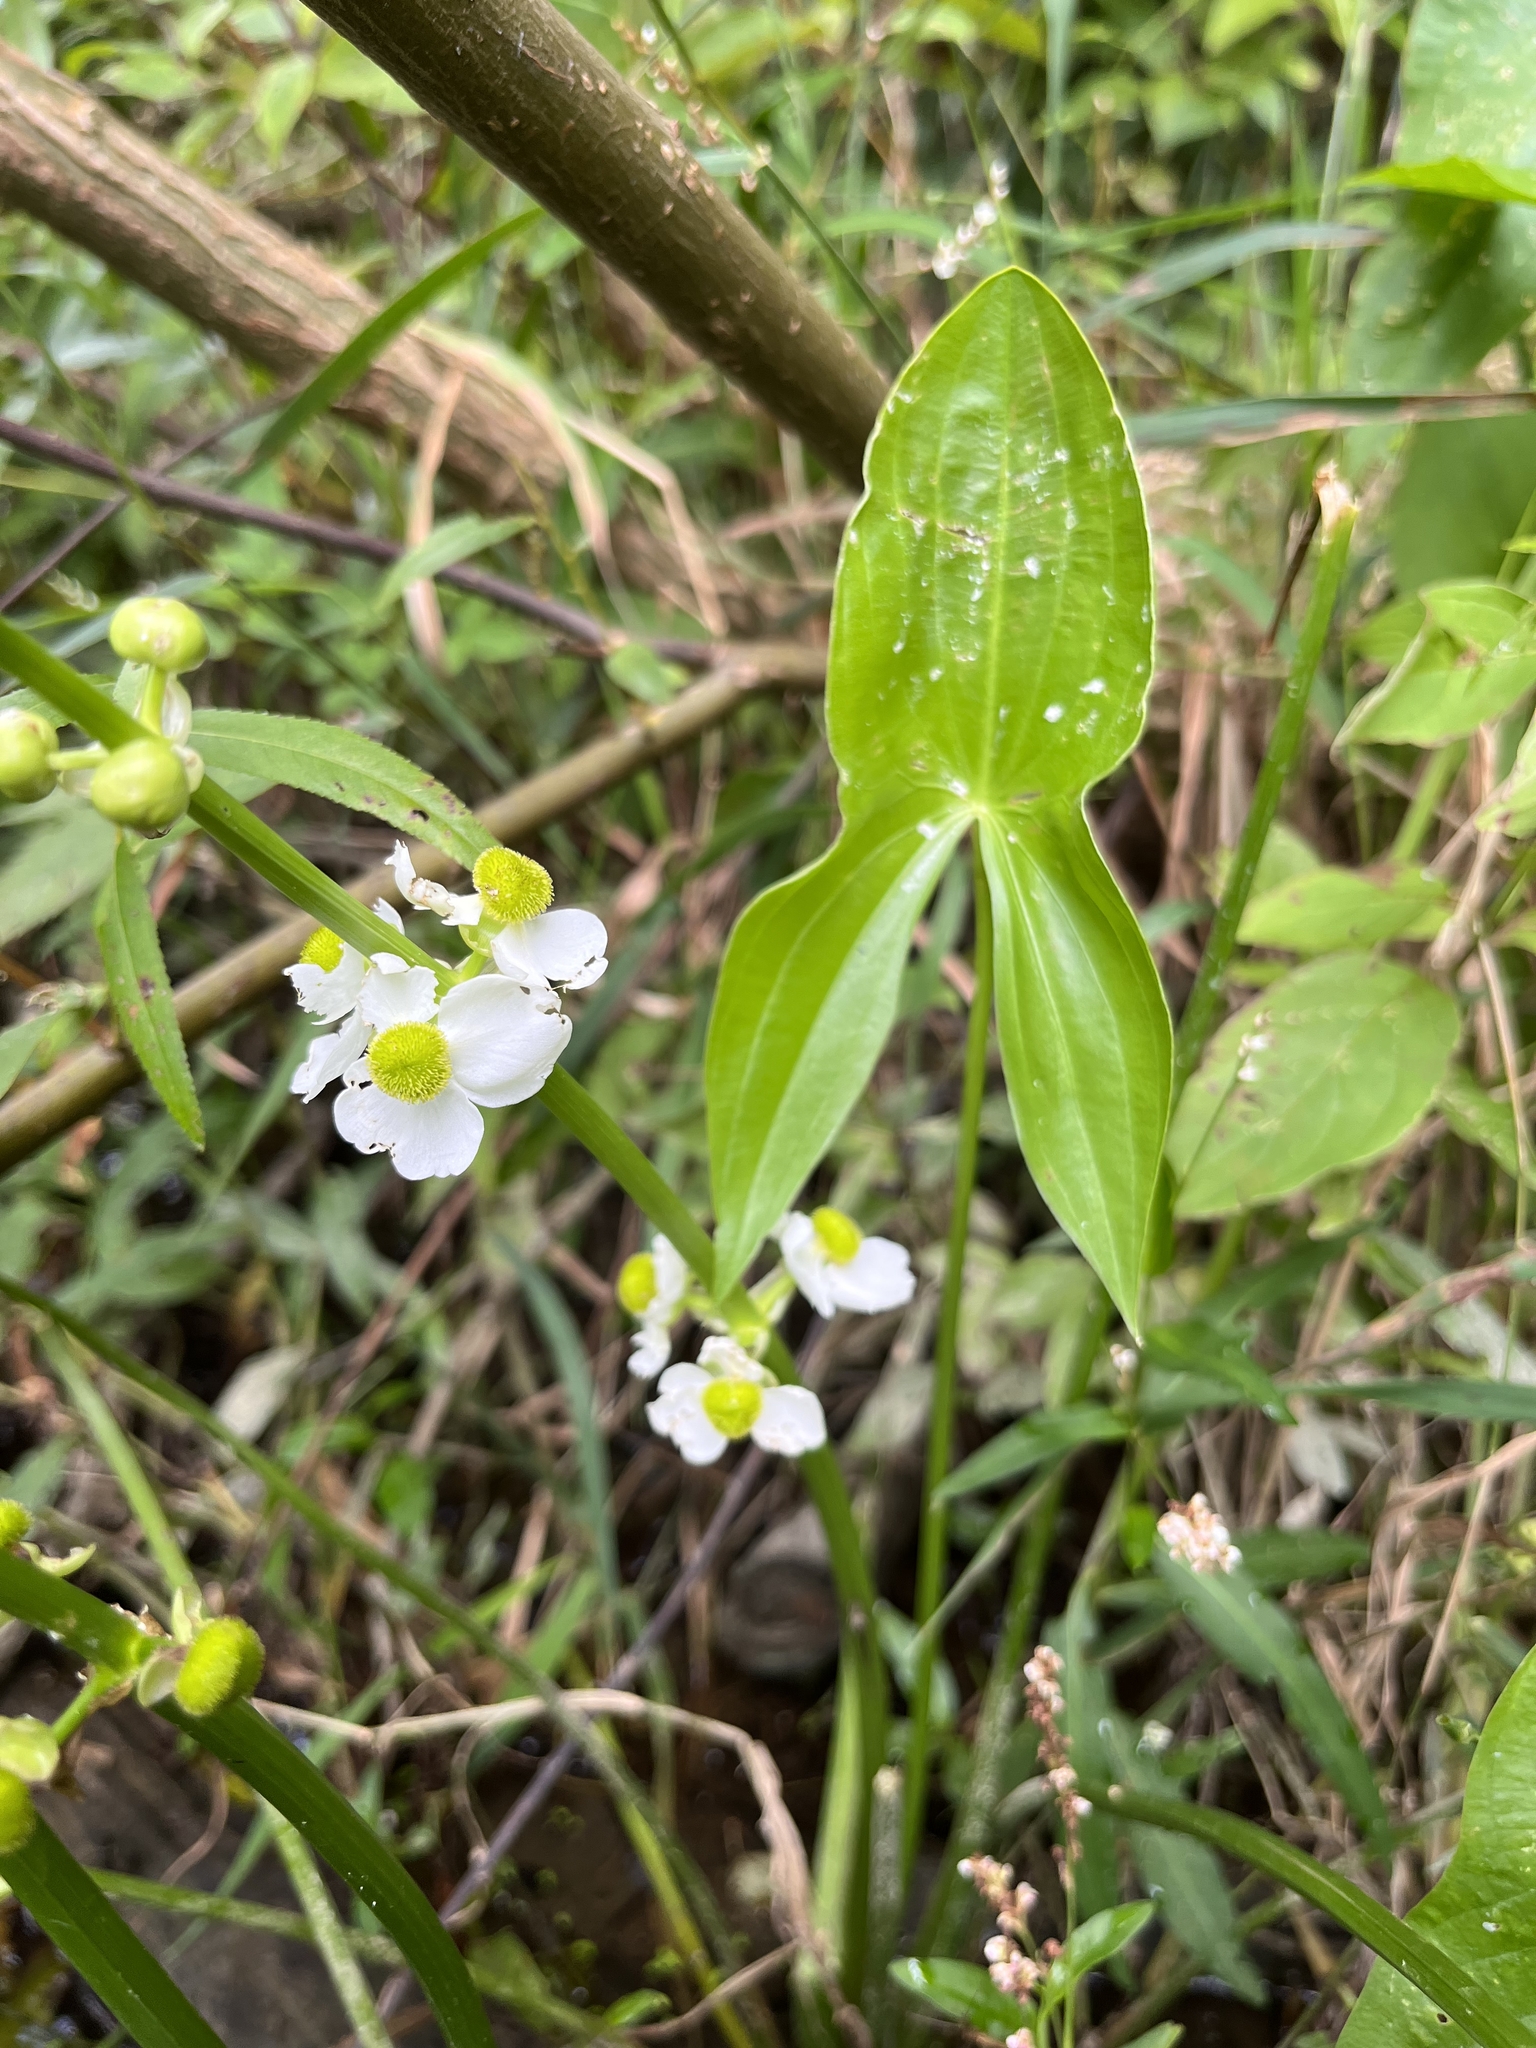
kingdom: Plantae
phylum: Tracheophyta
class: Liliopsida
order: Alismatales
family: Alismataceae
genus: Sagittaria
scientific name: Sagittaria latifolia
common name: Duck-potato
